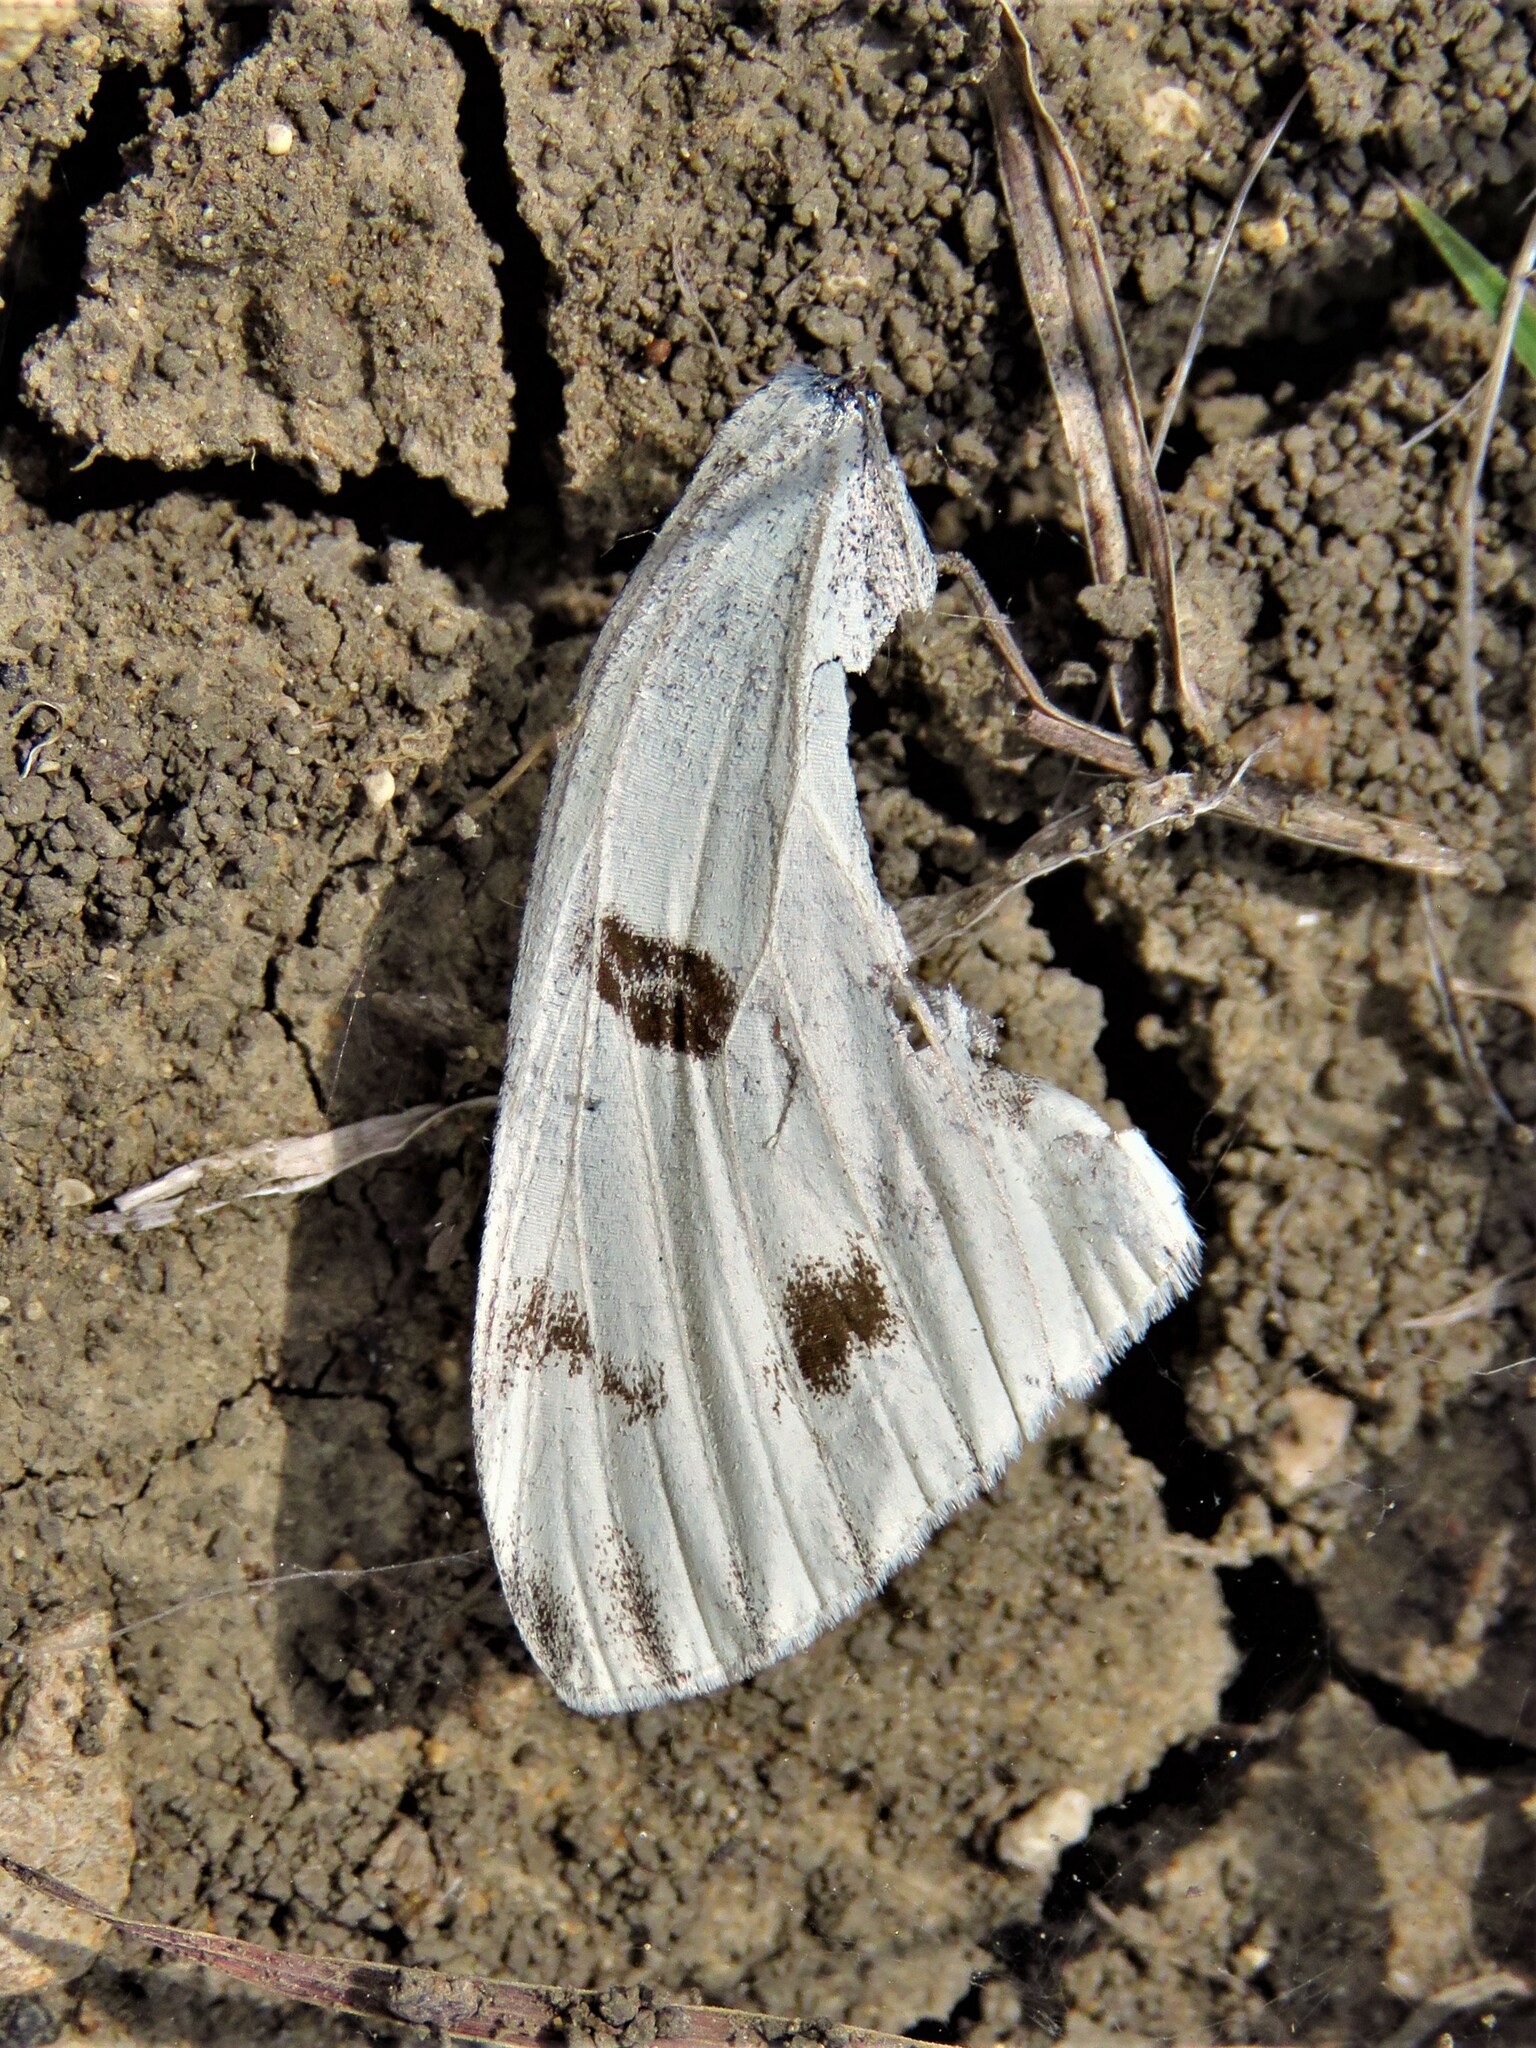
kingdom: Animalia
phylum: Arthropoda
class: Insecta
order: Lepidoptera
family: Pieridae
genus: Pontia
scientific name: Pontia protodice
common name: Checkered white
